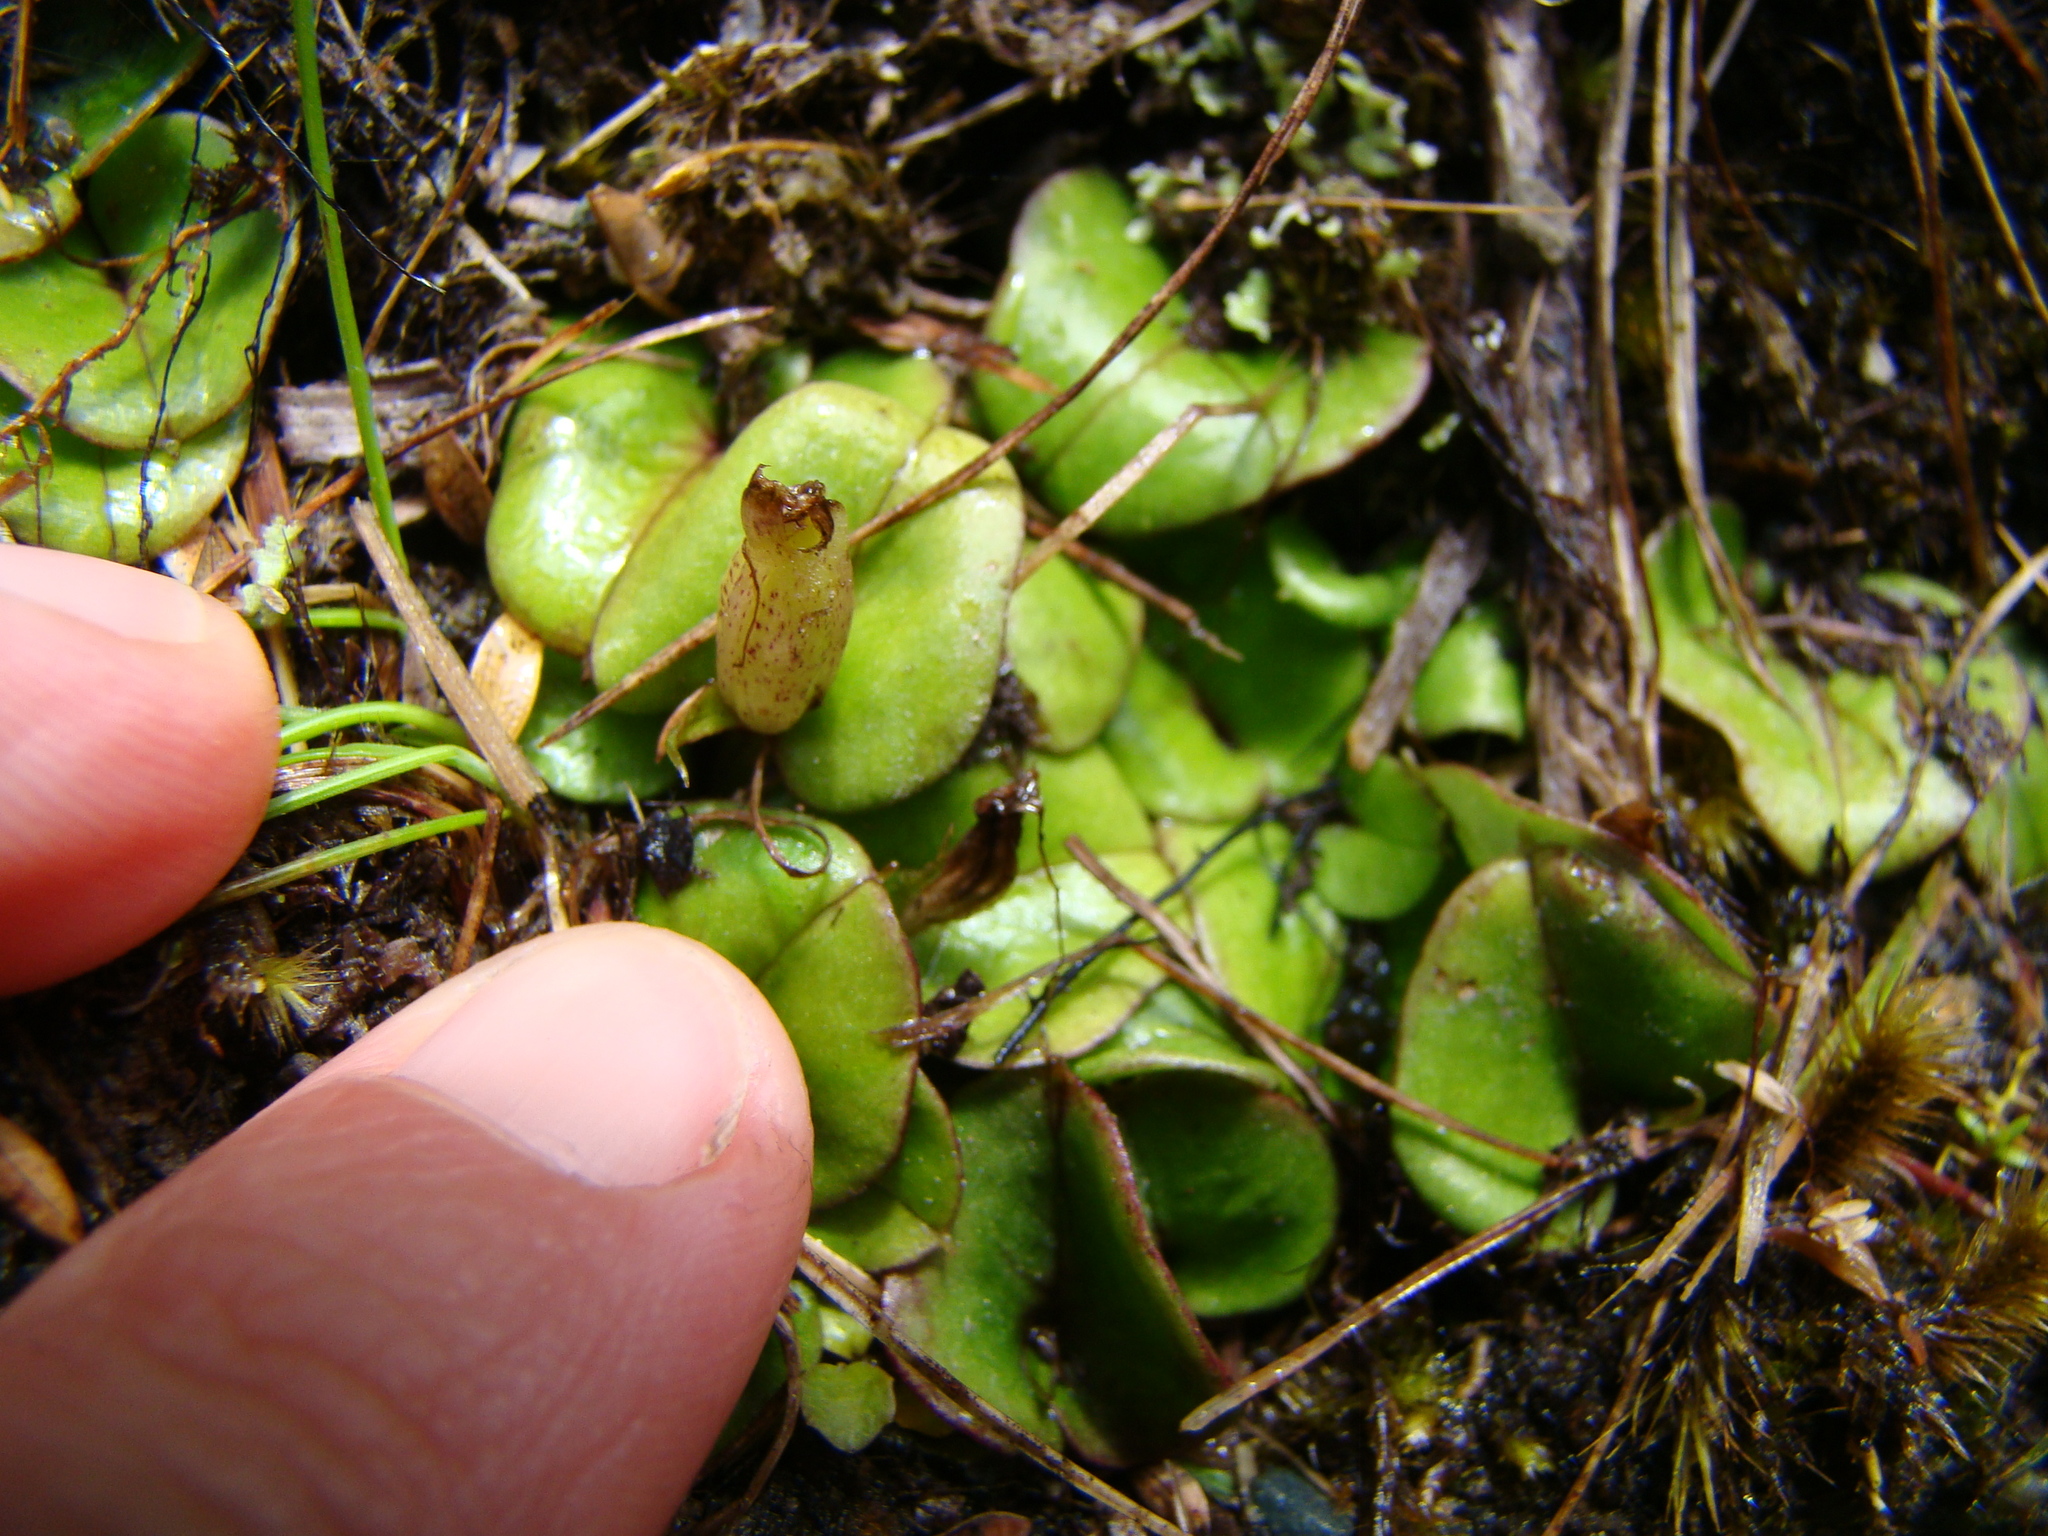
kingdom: Plantae
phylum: Tracheophyta
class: Liliopsida
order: Asparagales
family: Orchidaceae
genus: Corybas
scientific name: Corybas
